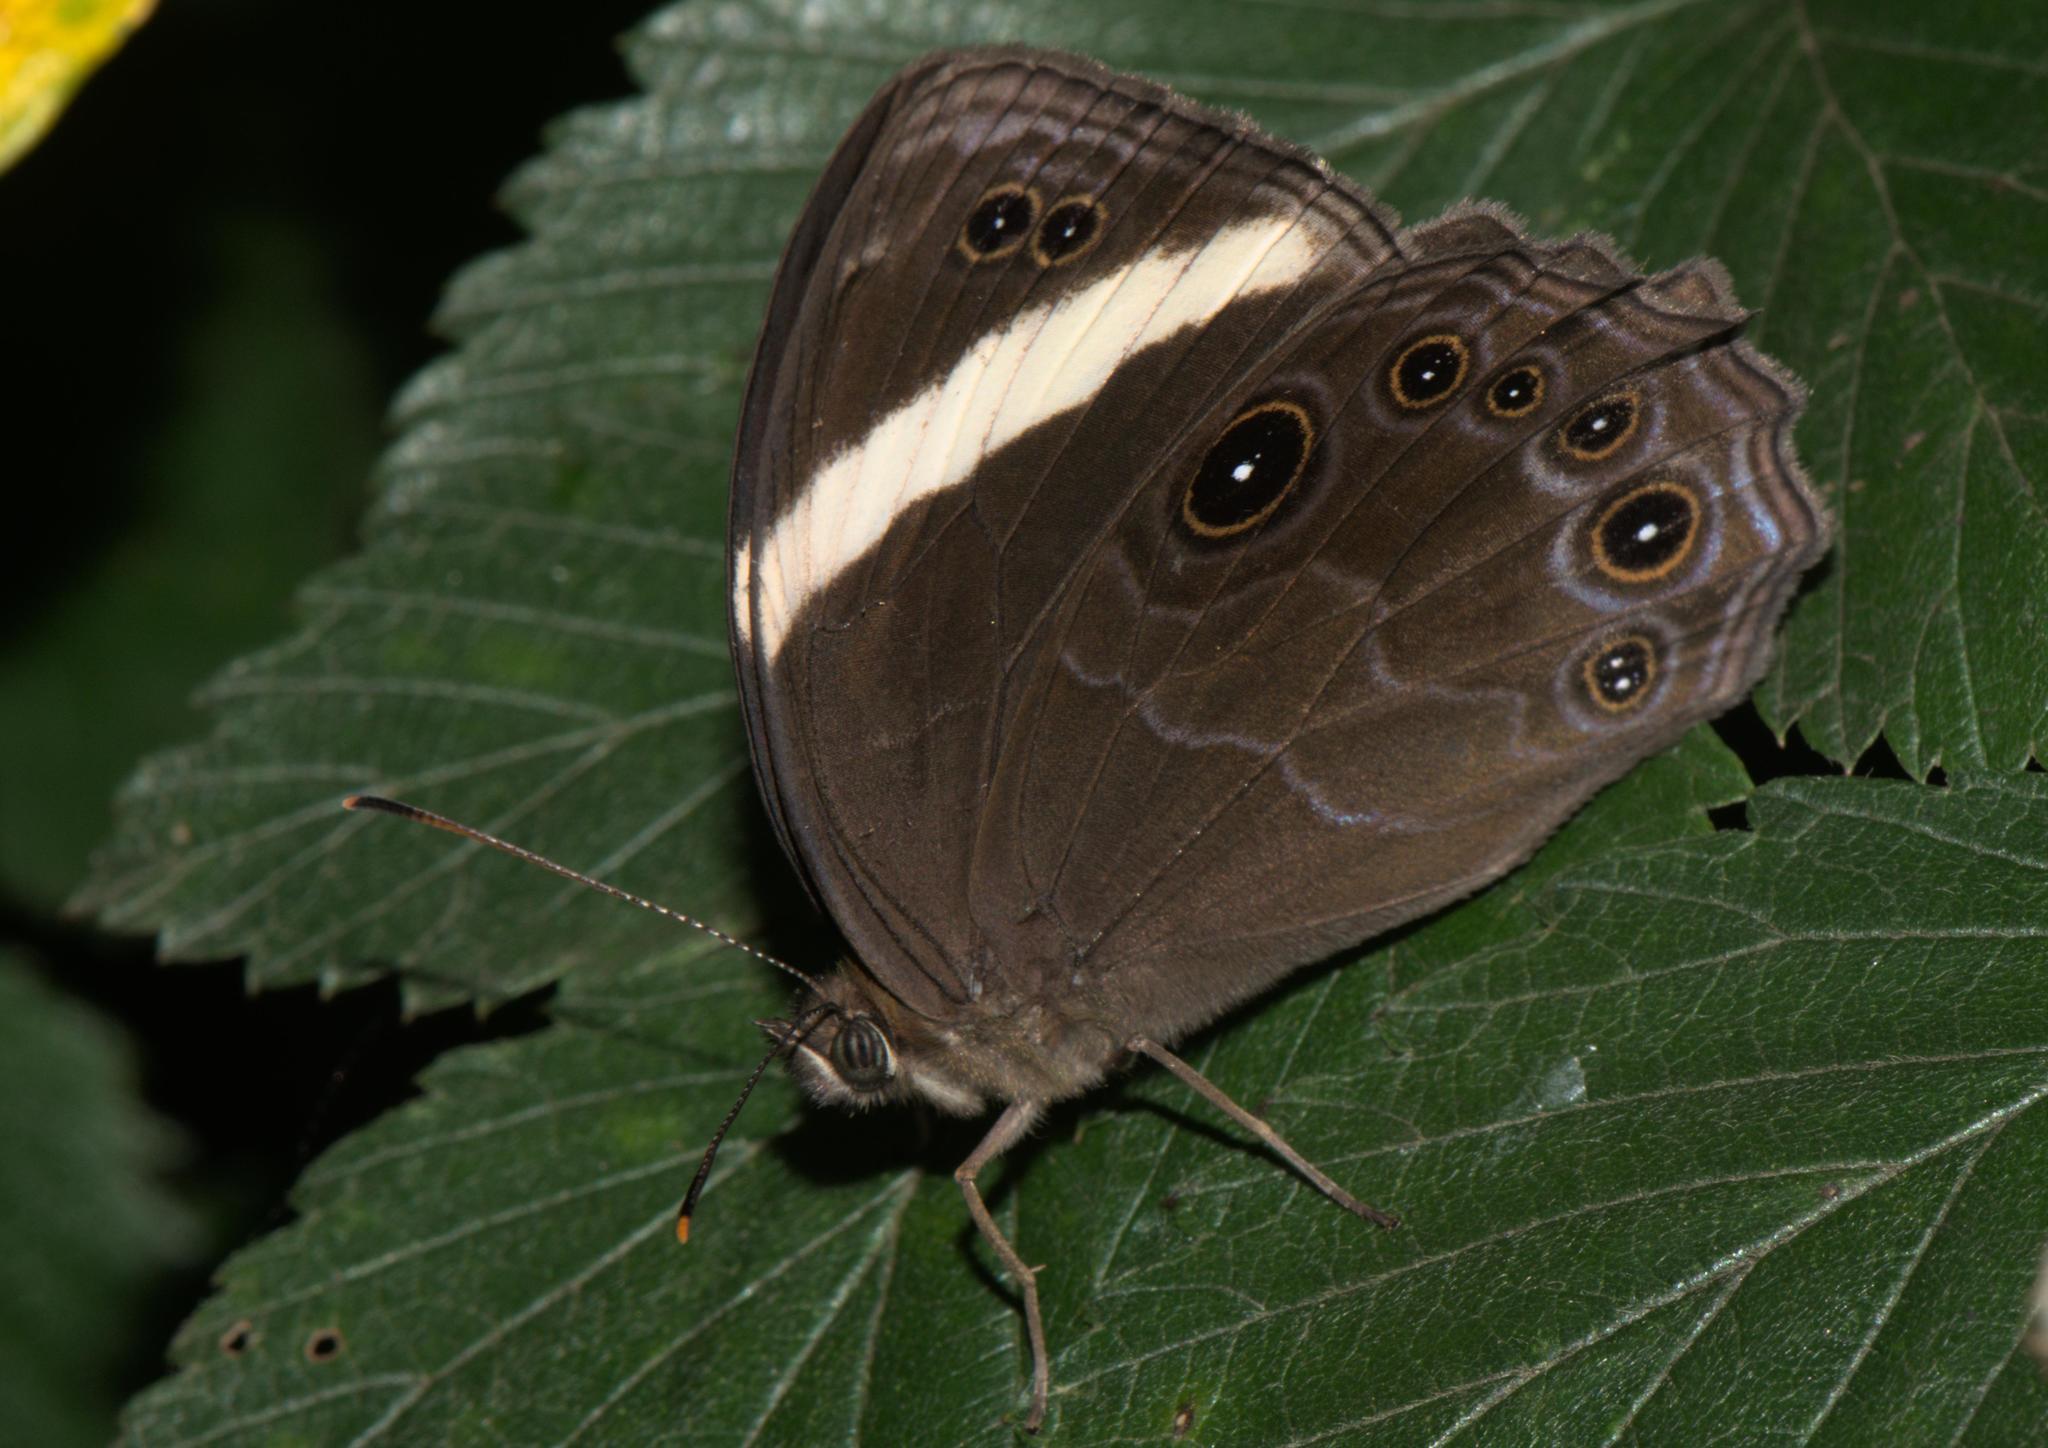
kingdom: Animalia
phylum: Arthropoda
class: Insecta
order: Lepidoptera
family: Nymphalidae
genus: Lethe
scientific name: Lethe verma
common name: Straight-banded treebrown
